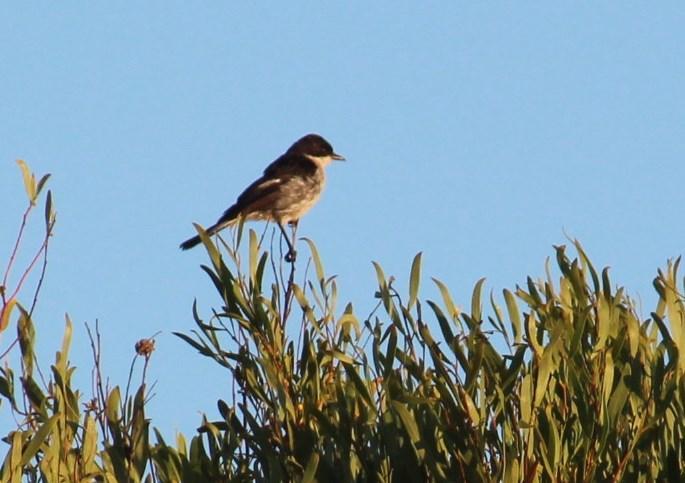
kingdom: Animalia
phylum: Chordata
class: Aves
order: Passeriformes
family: Muscicapidae
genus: Sigelus
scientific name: Sigelus silens
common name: Fiscal flycatcher
